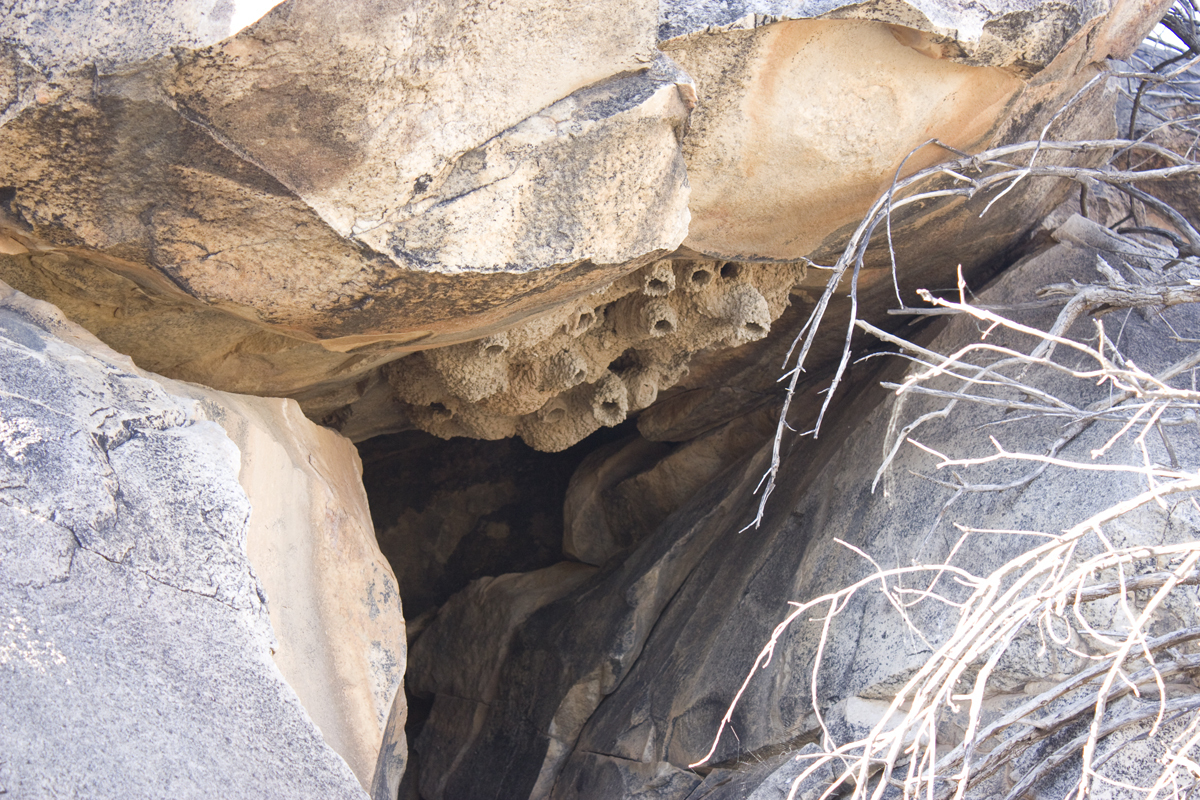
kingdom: Animalia
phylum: Chordata
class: Aves
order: Passeriformes
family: Hirundinidae
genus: Petrochelidon
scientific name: Petrochelidon ariel
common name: Fairy martin
